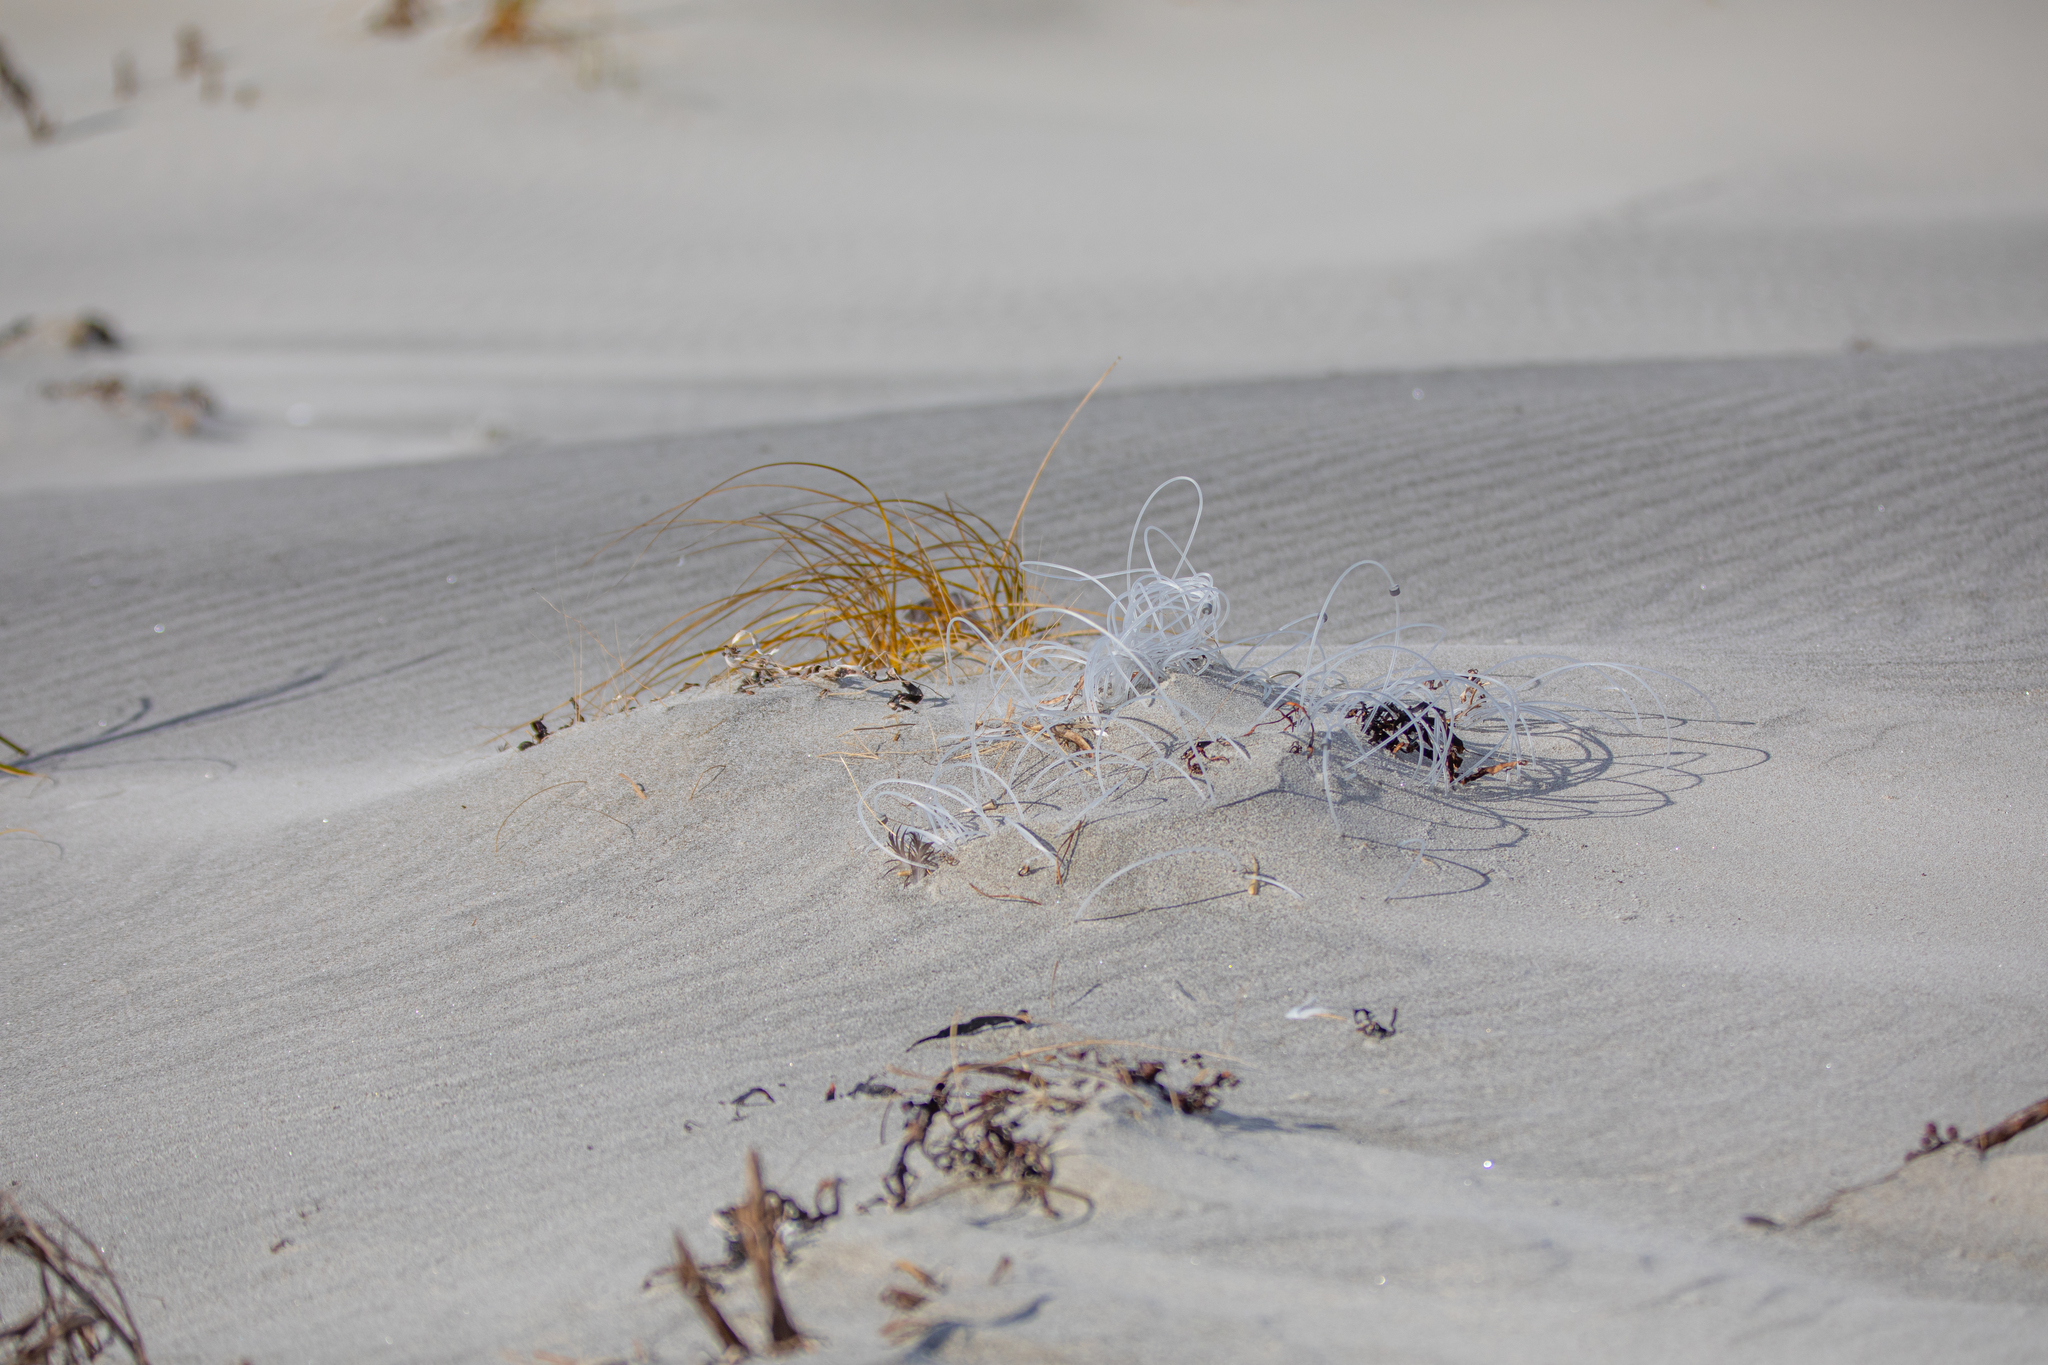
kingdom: Plantae
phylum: Tracheophyta
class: Liliopsida
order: Poales
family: Cyperaceae
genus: Ficinia
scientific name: Ficinia spiralis
